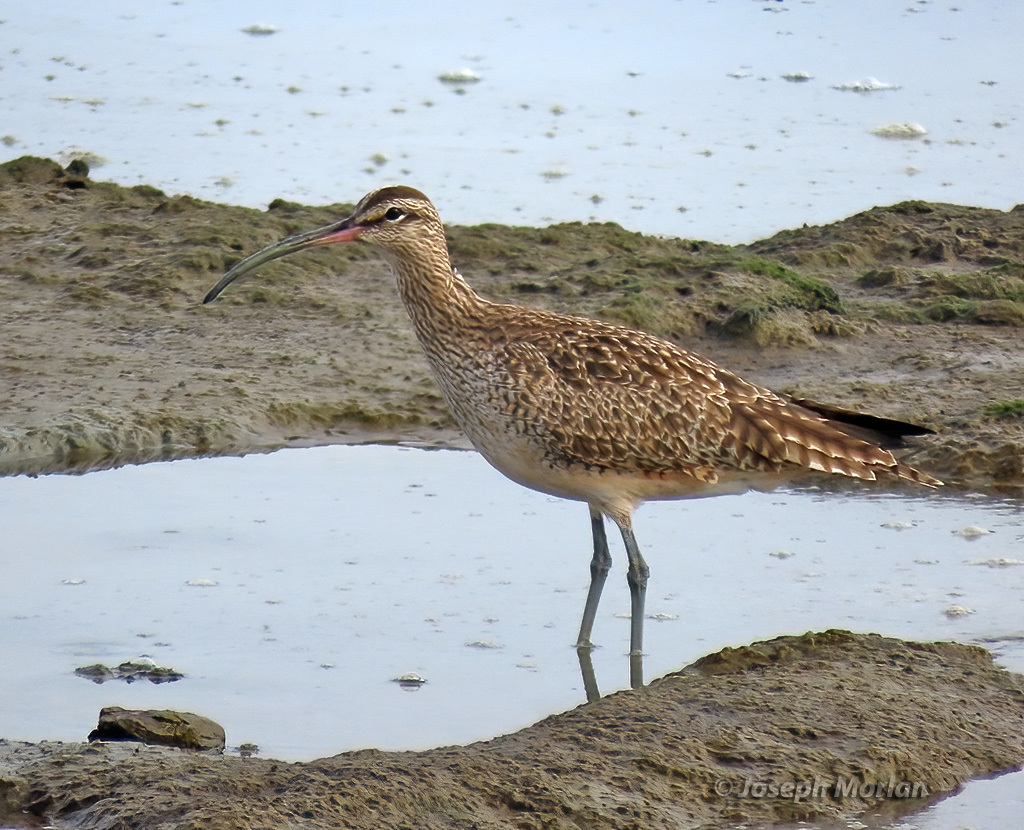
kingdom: Animalia
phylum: Chordata
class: Aves
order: Charadriiformes
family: Scolopacidae
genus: Numenius
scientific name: Numenius phaeopus
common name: Whimbrel
